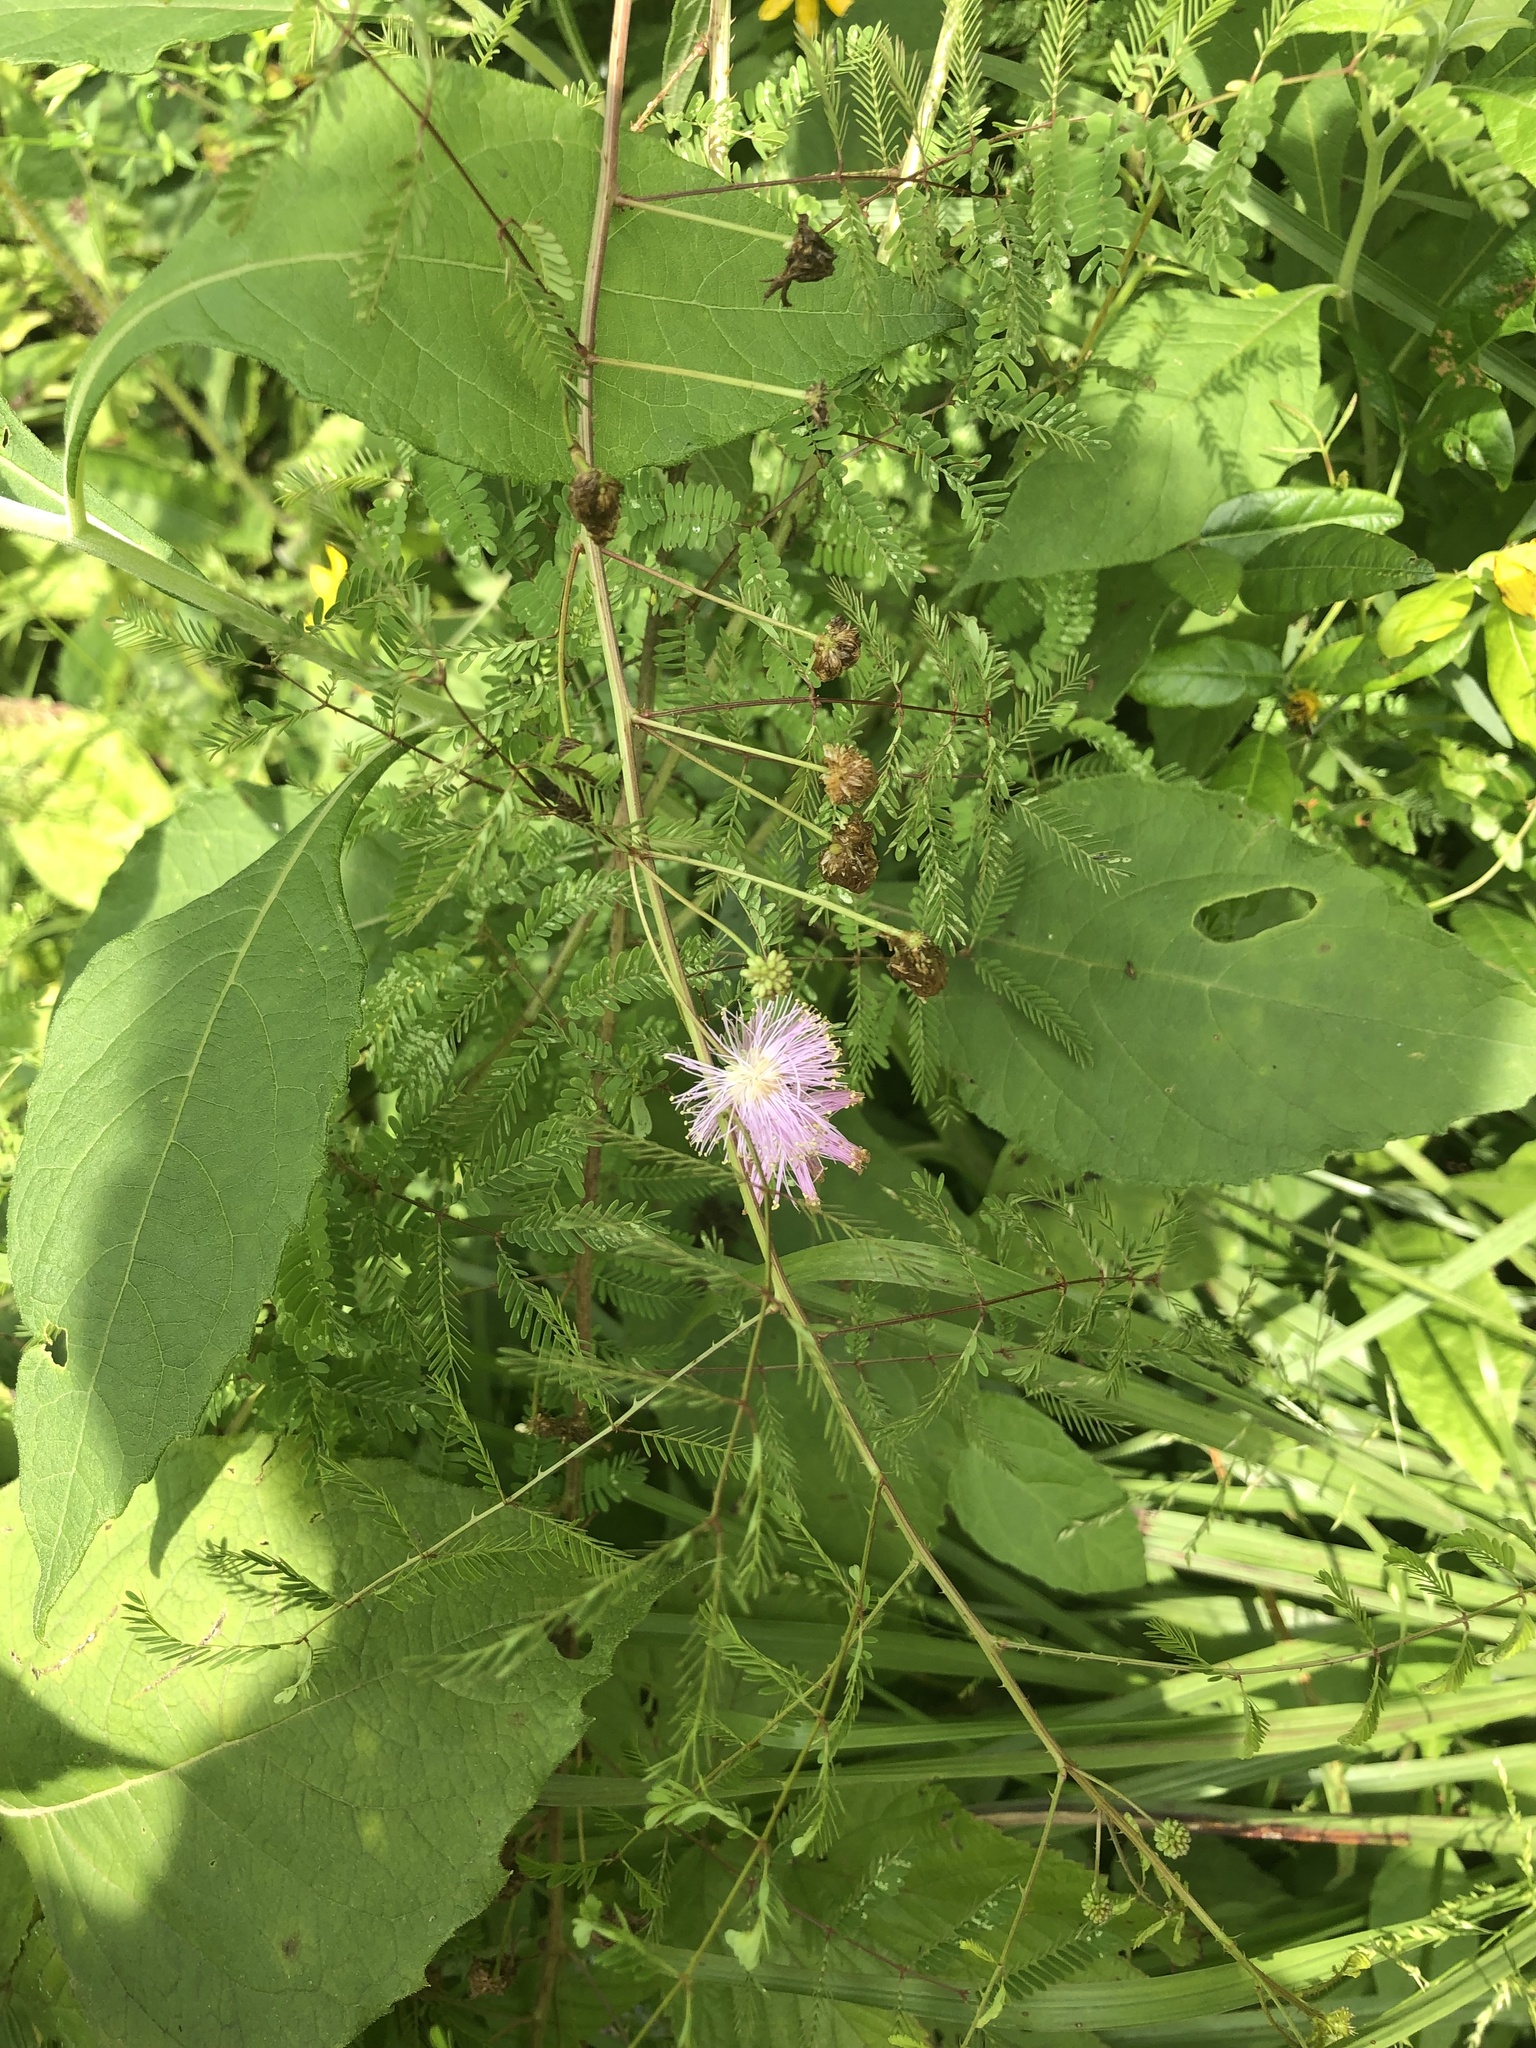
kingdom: Plantae
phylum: Tracheophyta
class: Magnoliopsida
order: Fabales
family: Fabaceae
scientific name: Fabaceae
